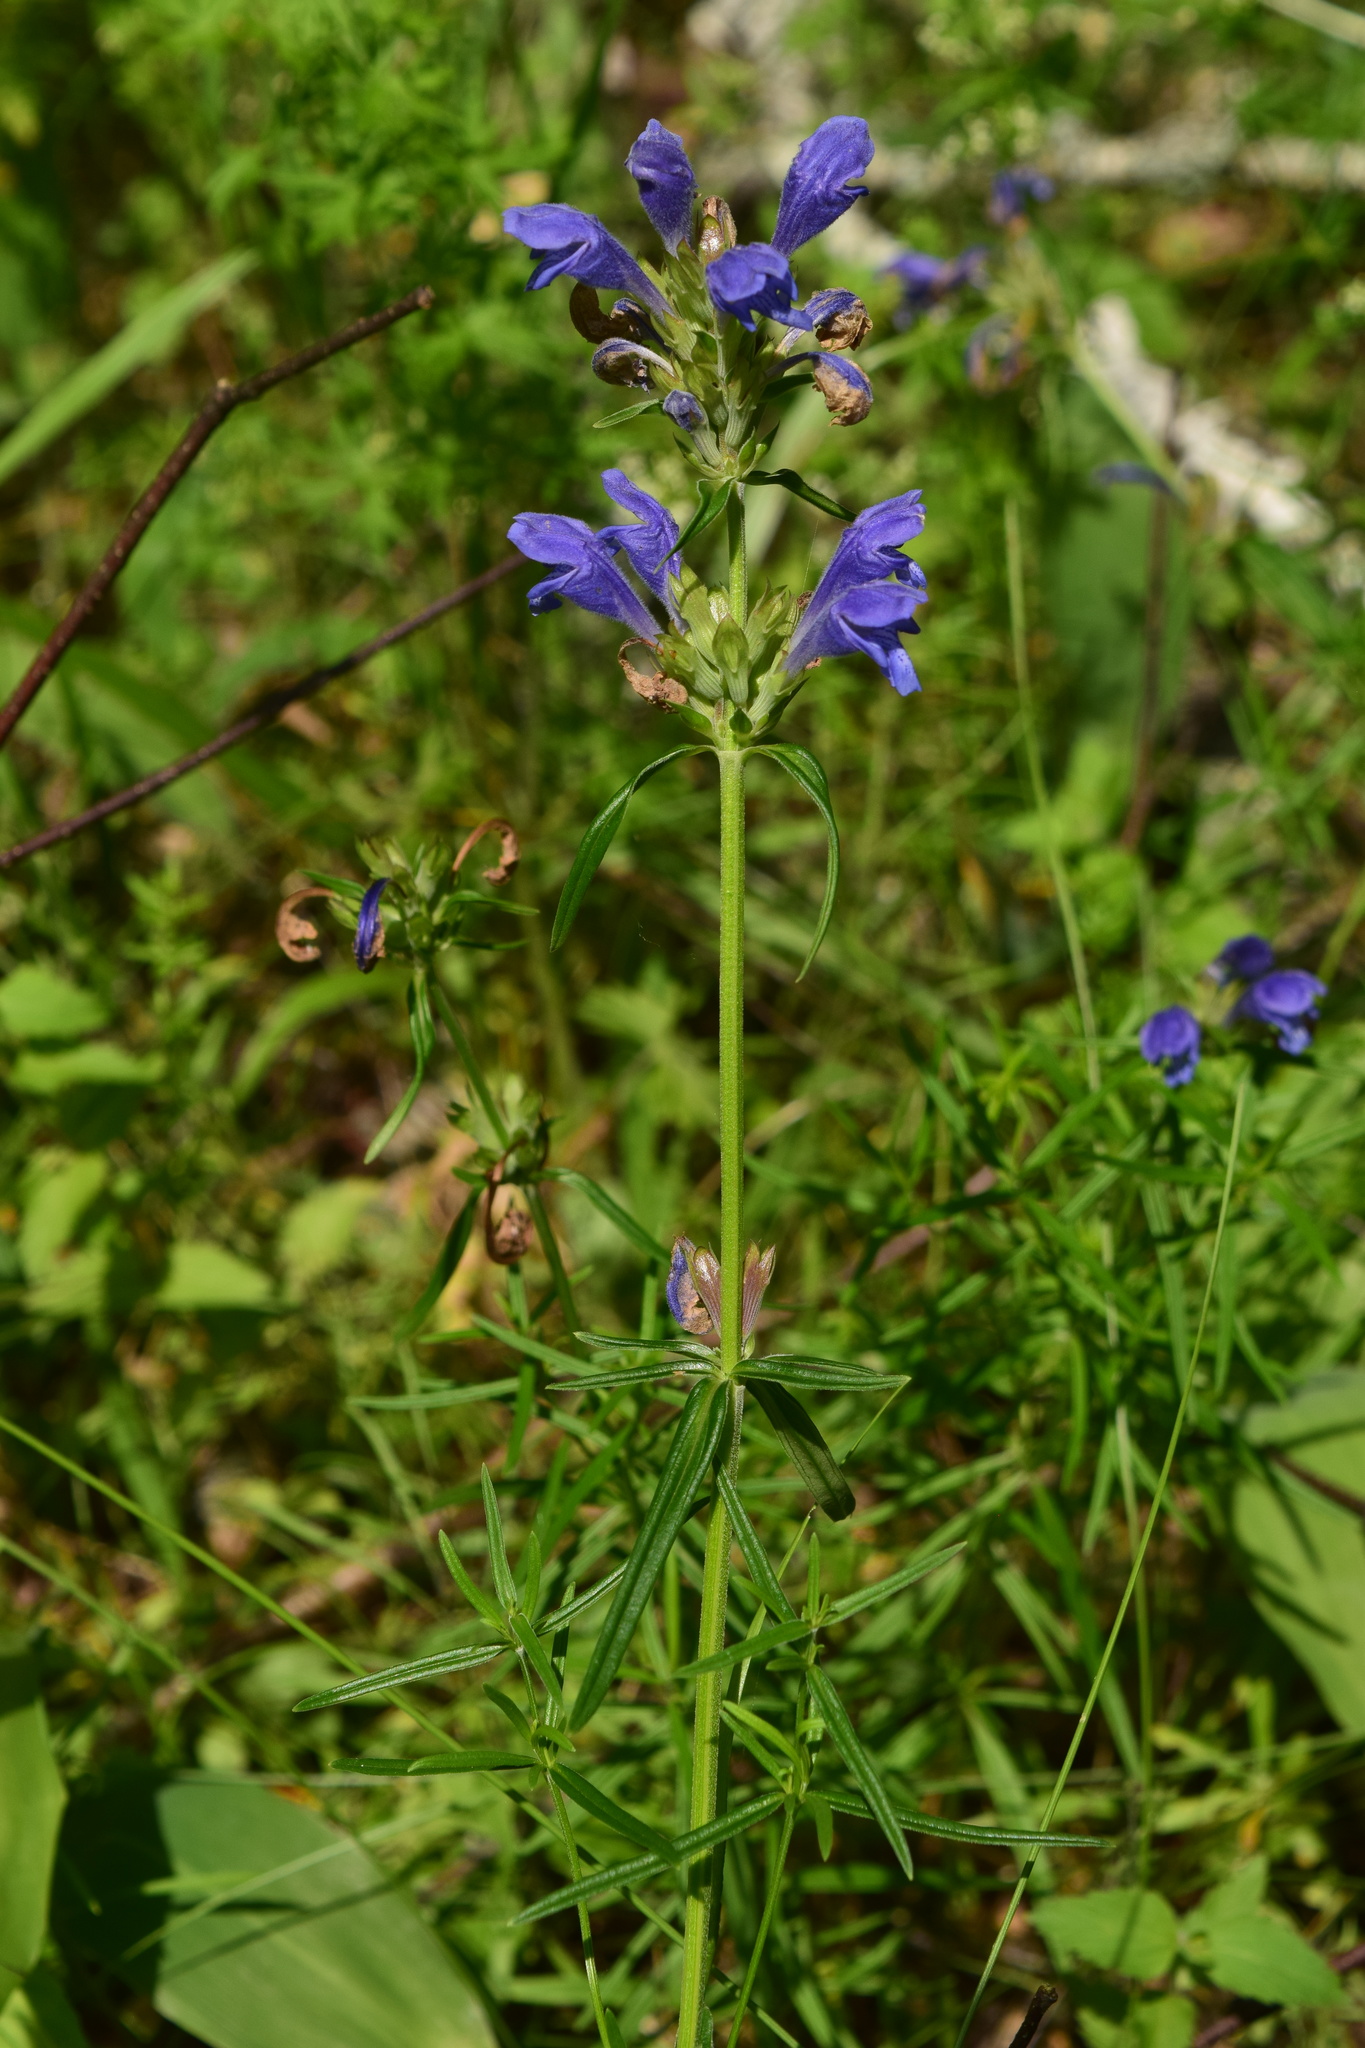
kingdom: Plantae
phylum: Tracheophyta
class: Magnoliopsida
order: Lamiales
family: Lamiaceae
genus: Dracocephalum
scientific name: Dracocephalum ruyschiana
